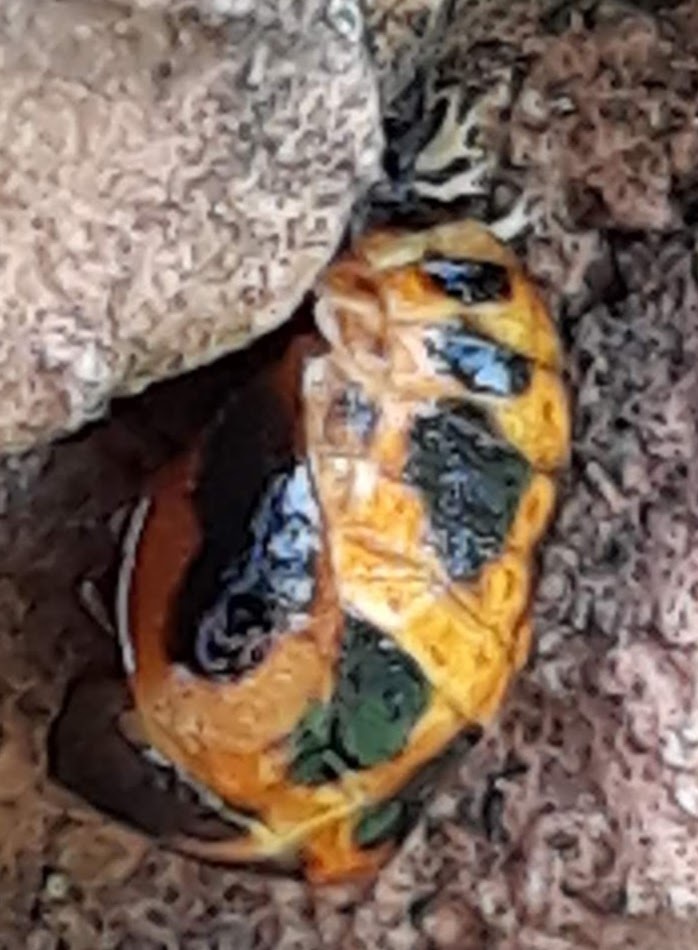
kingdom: Animalia
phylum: Arthropoda
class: Insecta
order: Coleoptera
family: Coccinellidae
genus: Harmonia
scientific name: Harmonia axyridis
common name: Harlequin ladybird
